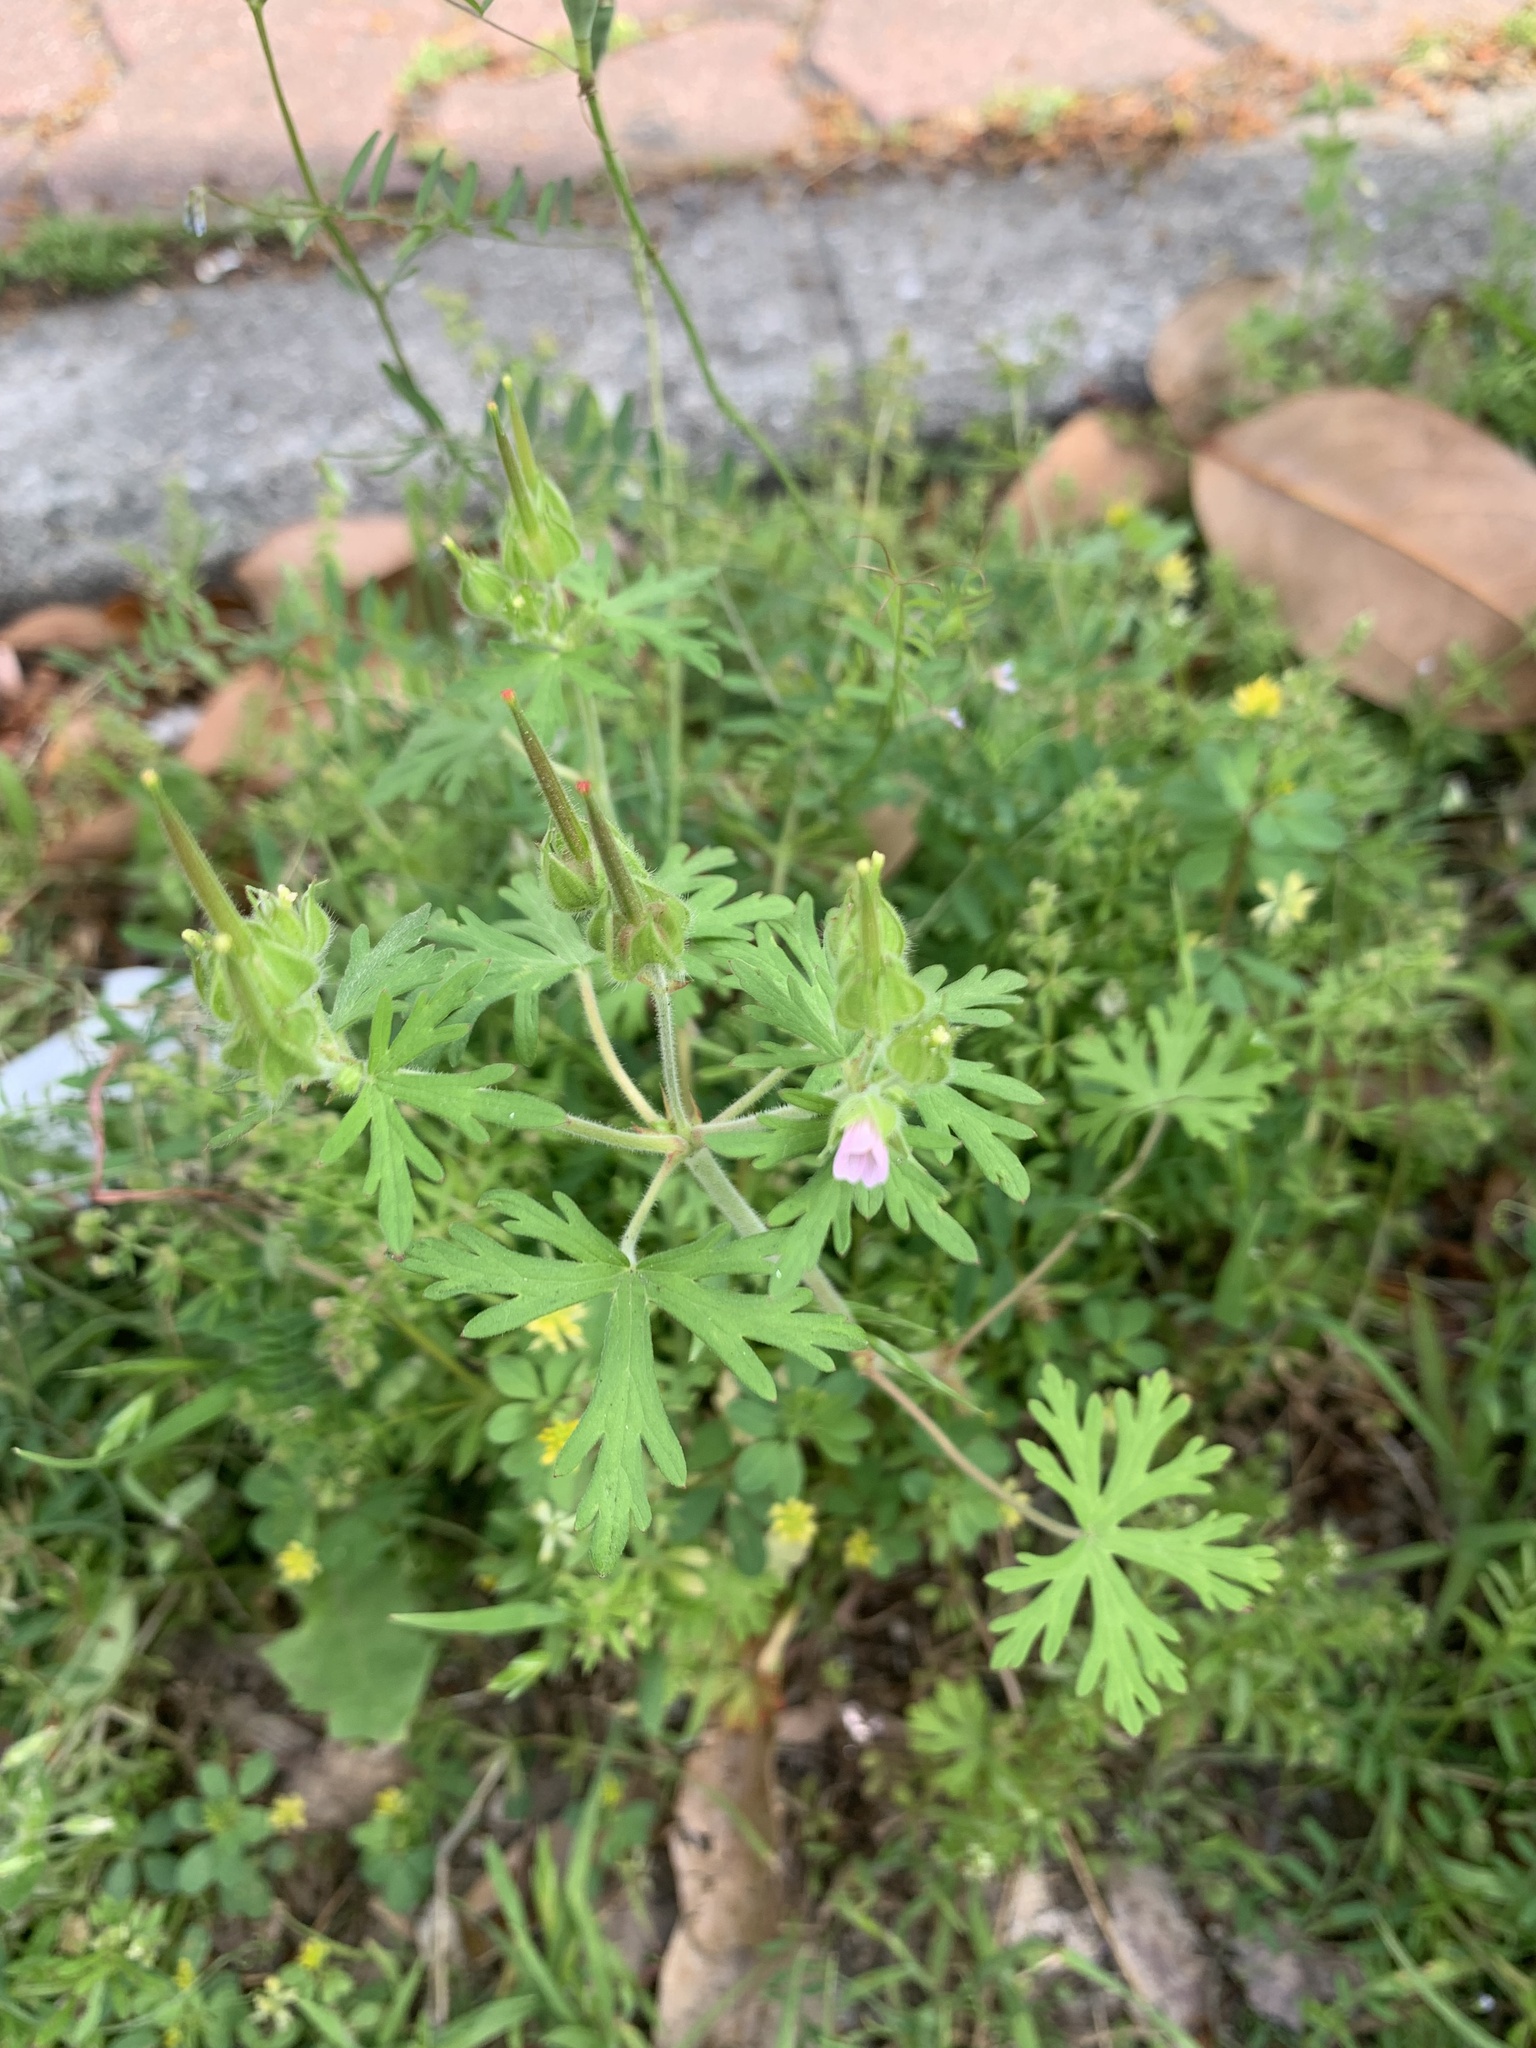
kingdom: Plantae
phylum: Tracheophyta
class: Magnoliopsida
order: Geraniales
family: Geraniaceae
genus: Geranium
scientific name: Geranium carolinianum
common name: Carolina crane's-bill
